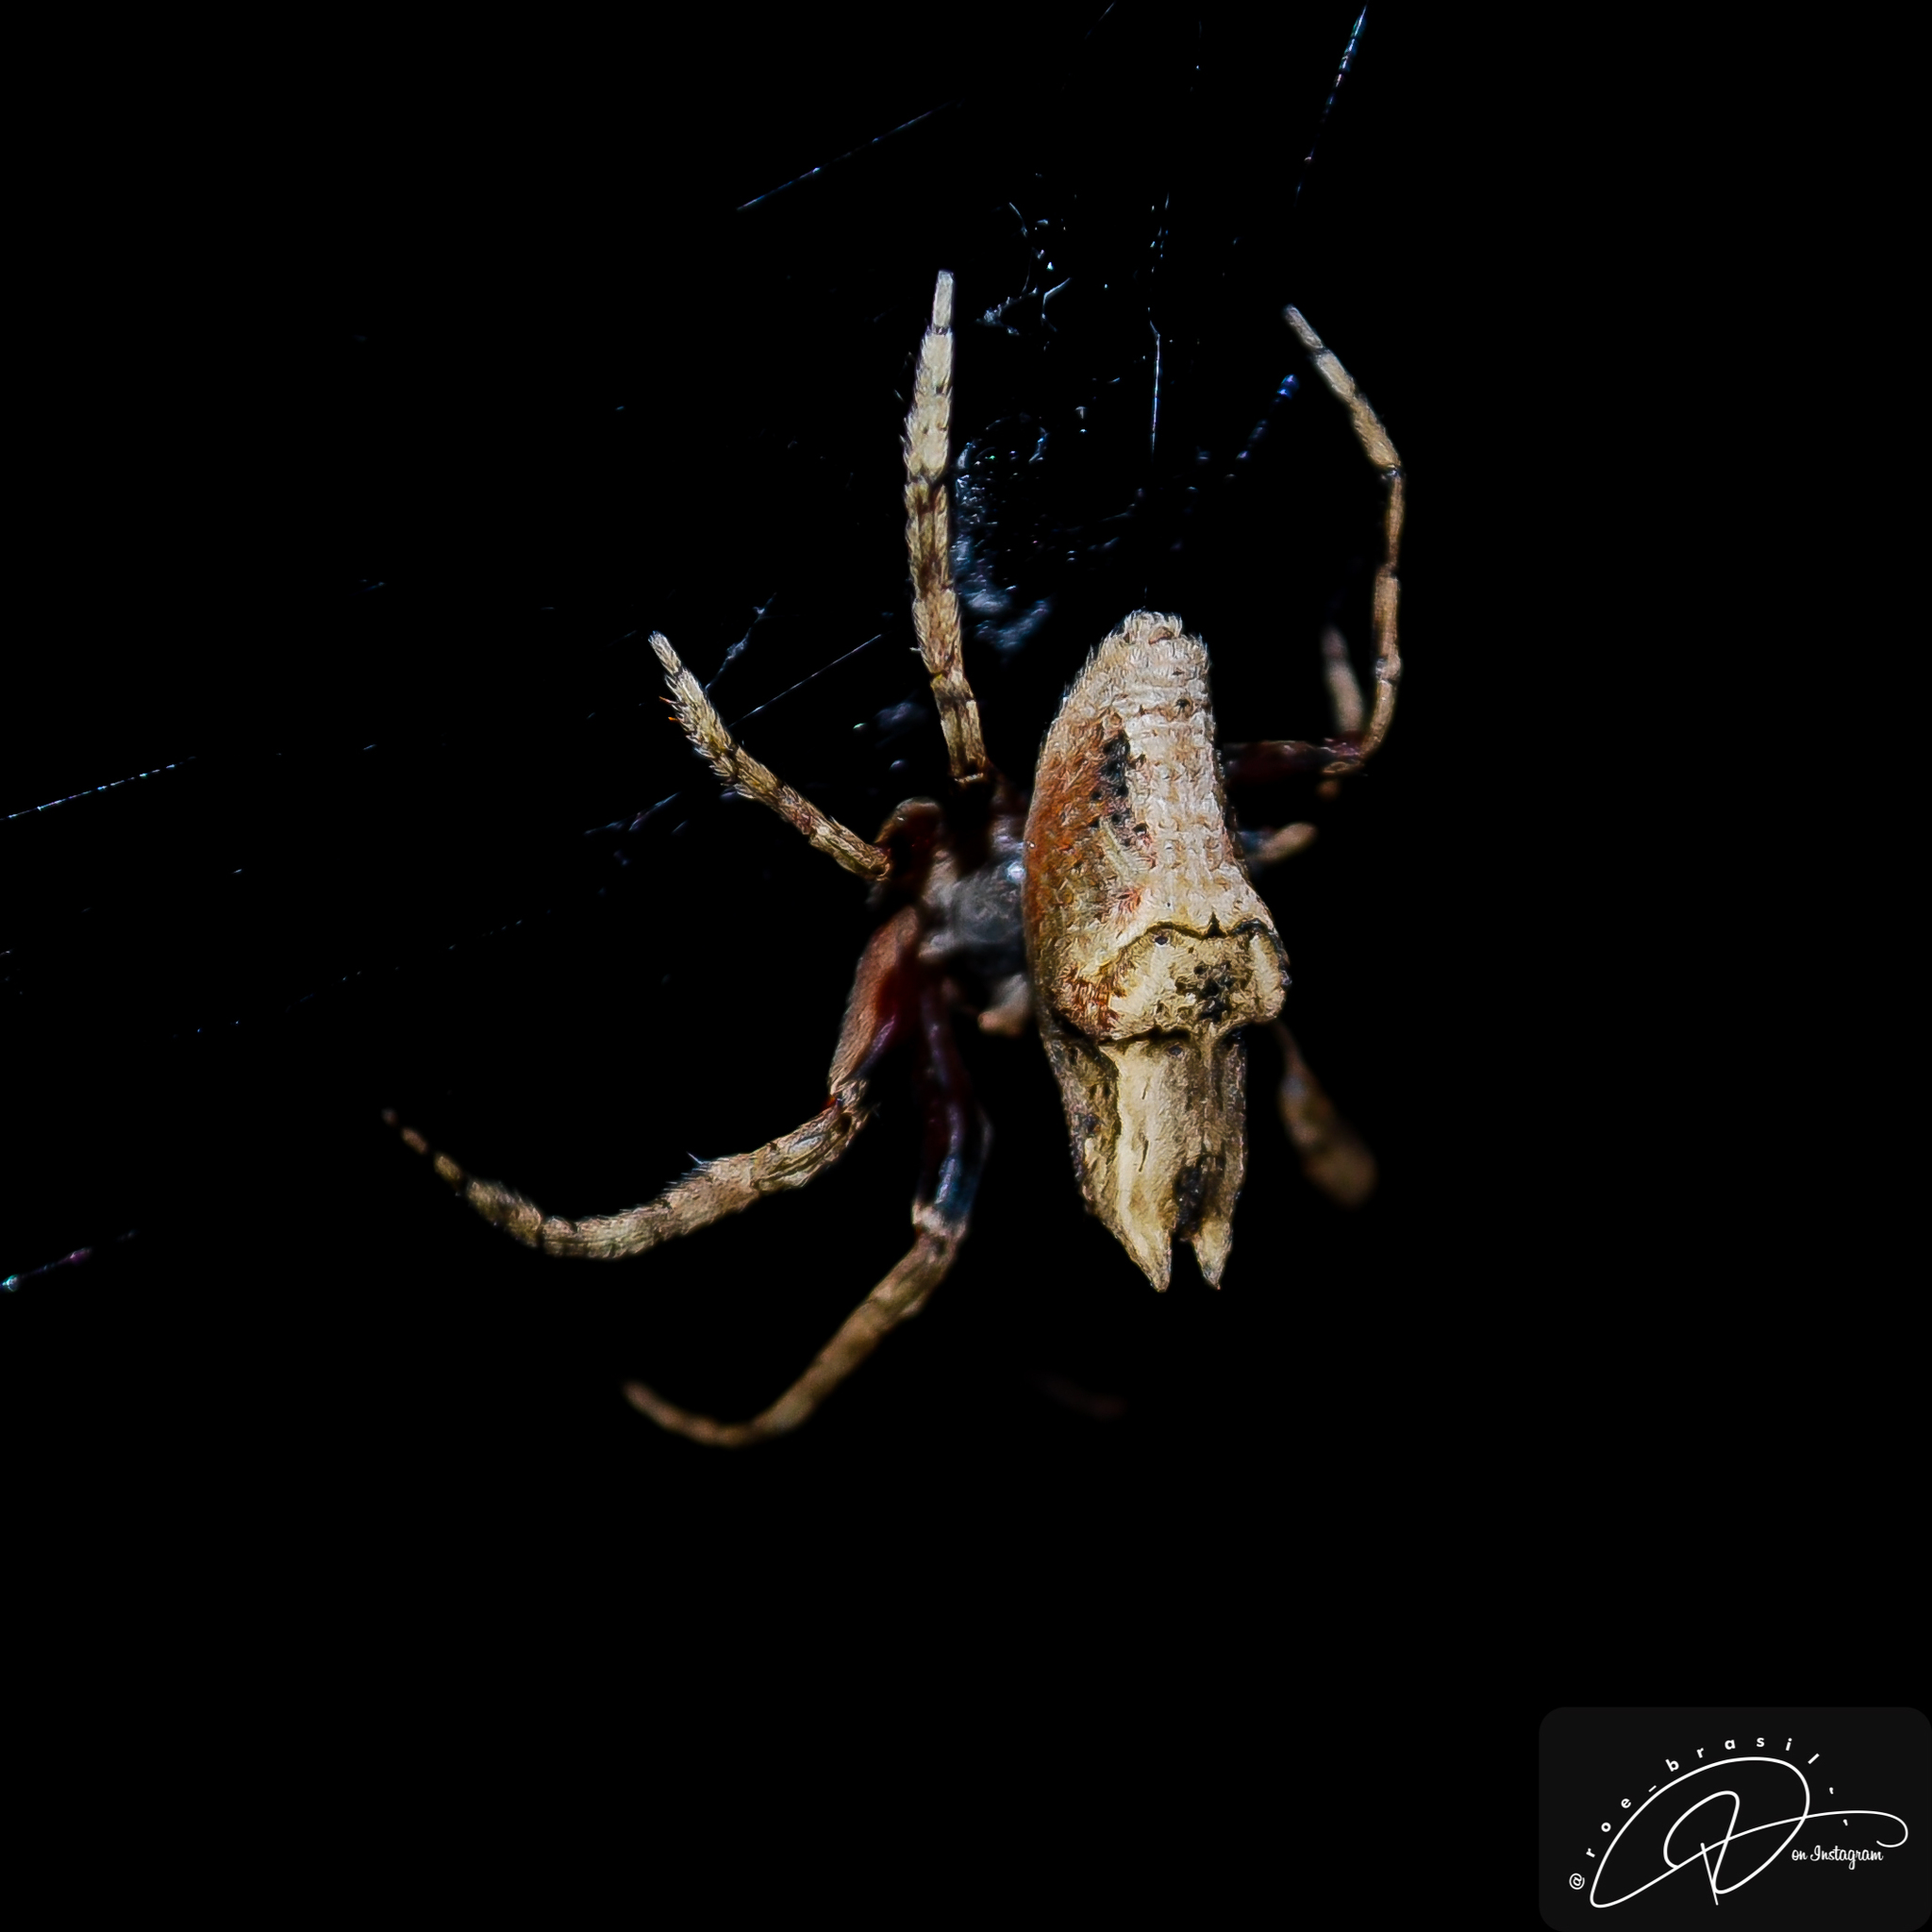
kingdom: Animalia
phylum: Arthropoda
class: Arachnida
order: Araneae
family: Araneidae
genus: Pozonia
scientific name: Pozonia bacillifera
